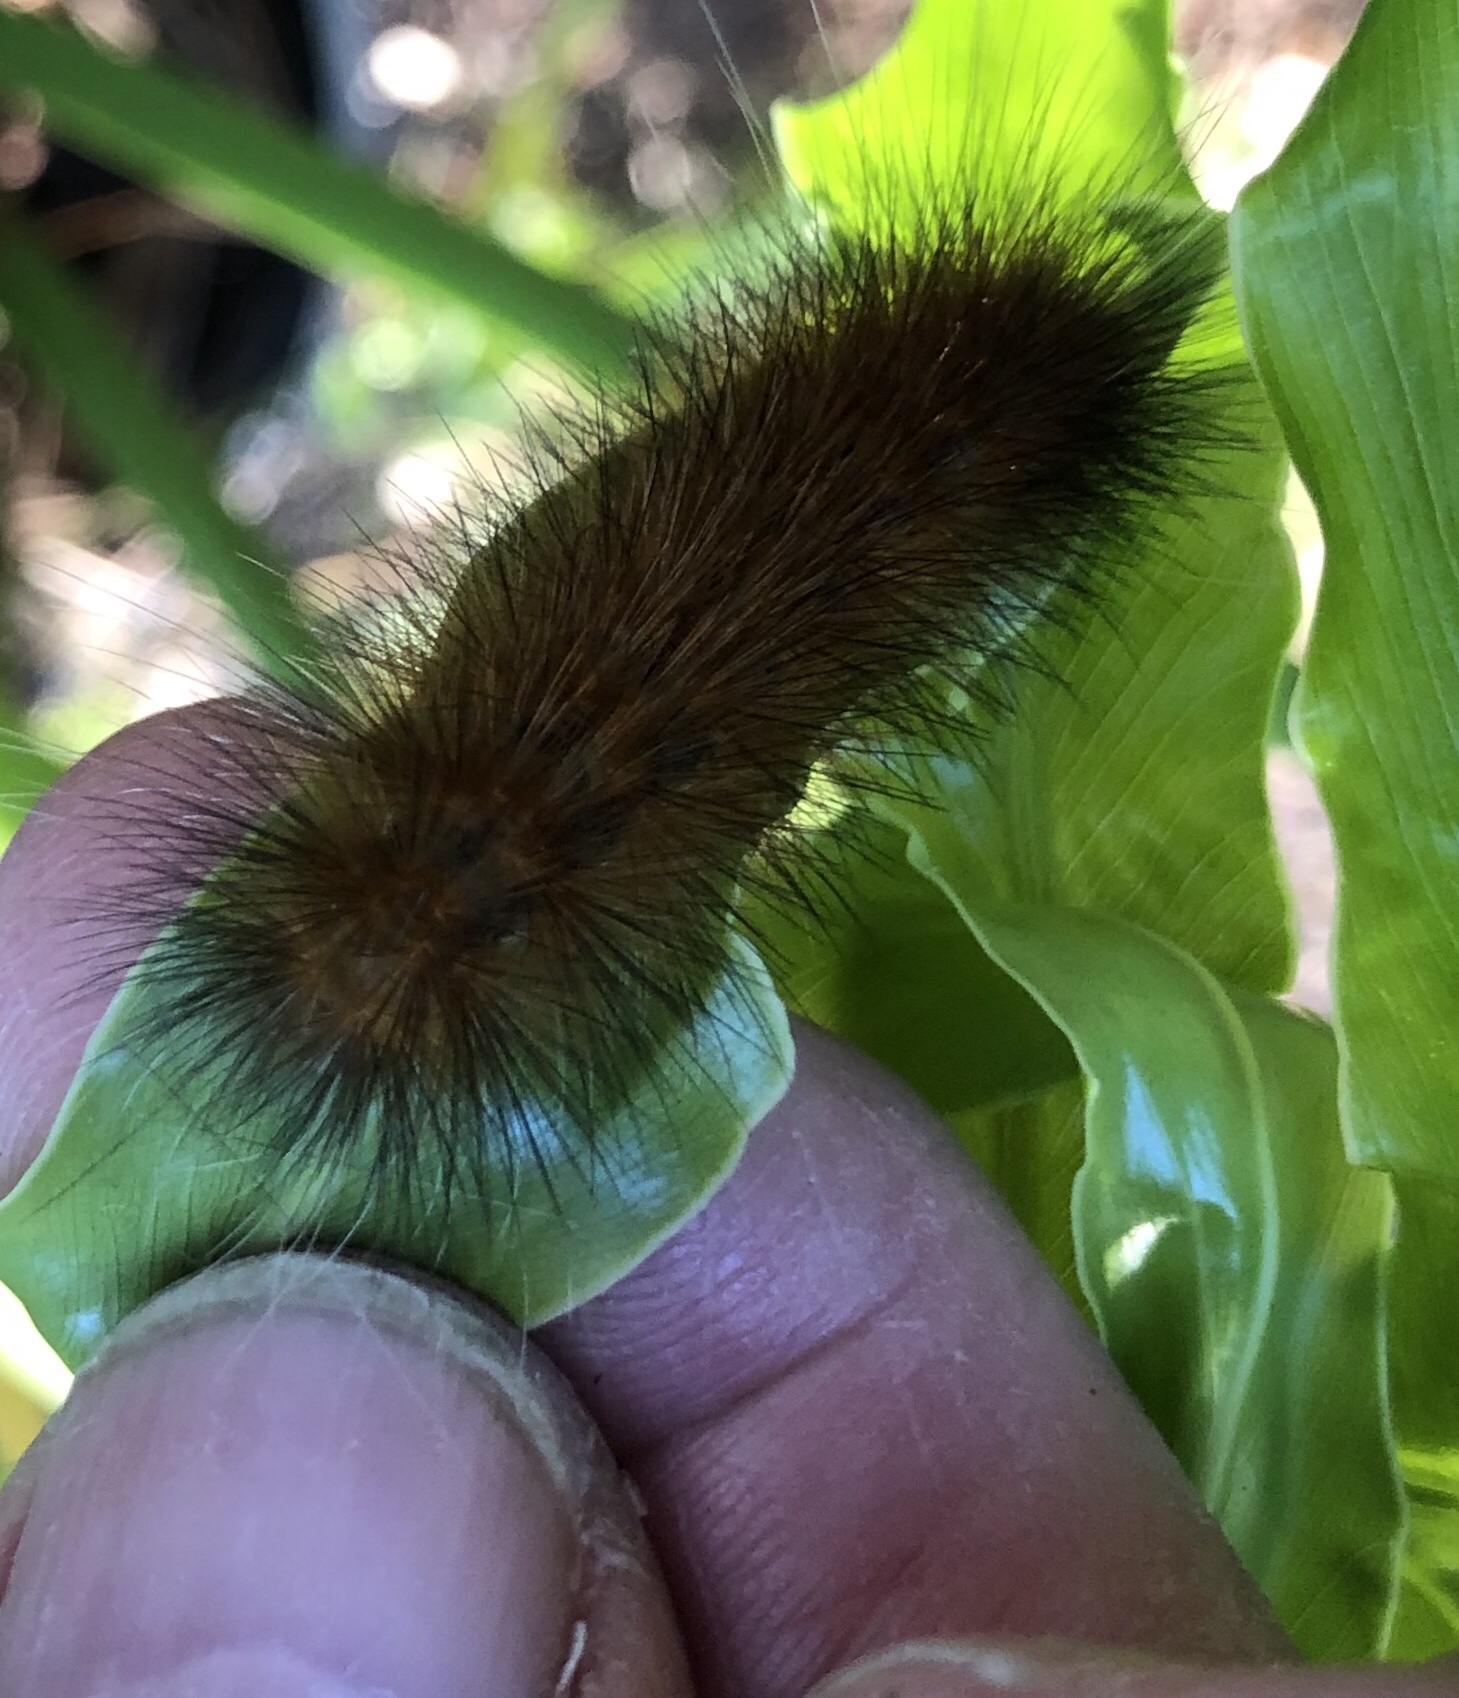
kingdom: Animalia
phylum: Arthropoda
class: Insecta
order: Lepidoptera
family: Erebidae
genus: Estigmene
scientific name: Estigmene acrea
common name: Salt marsh moth
